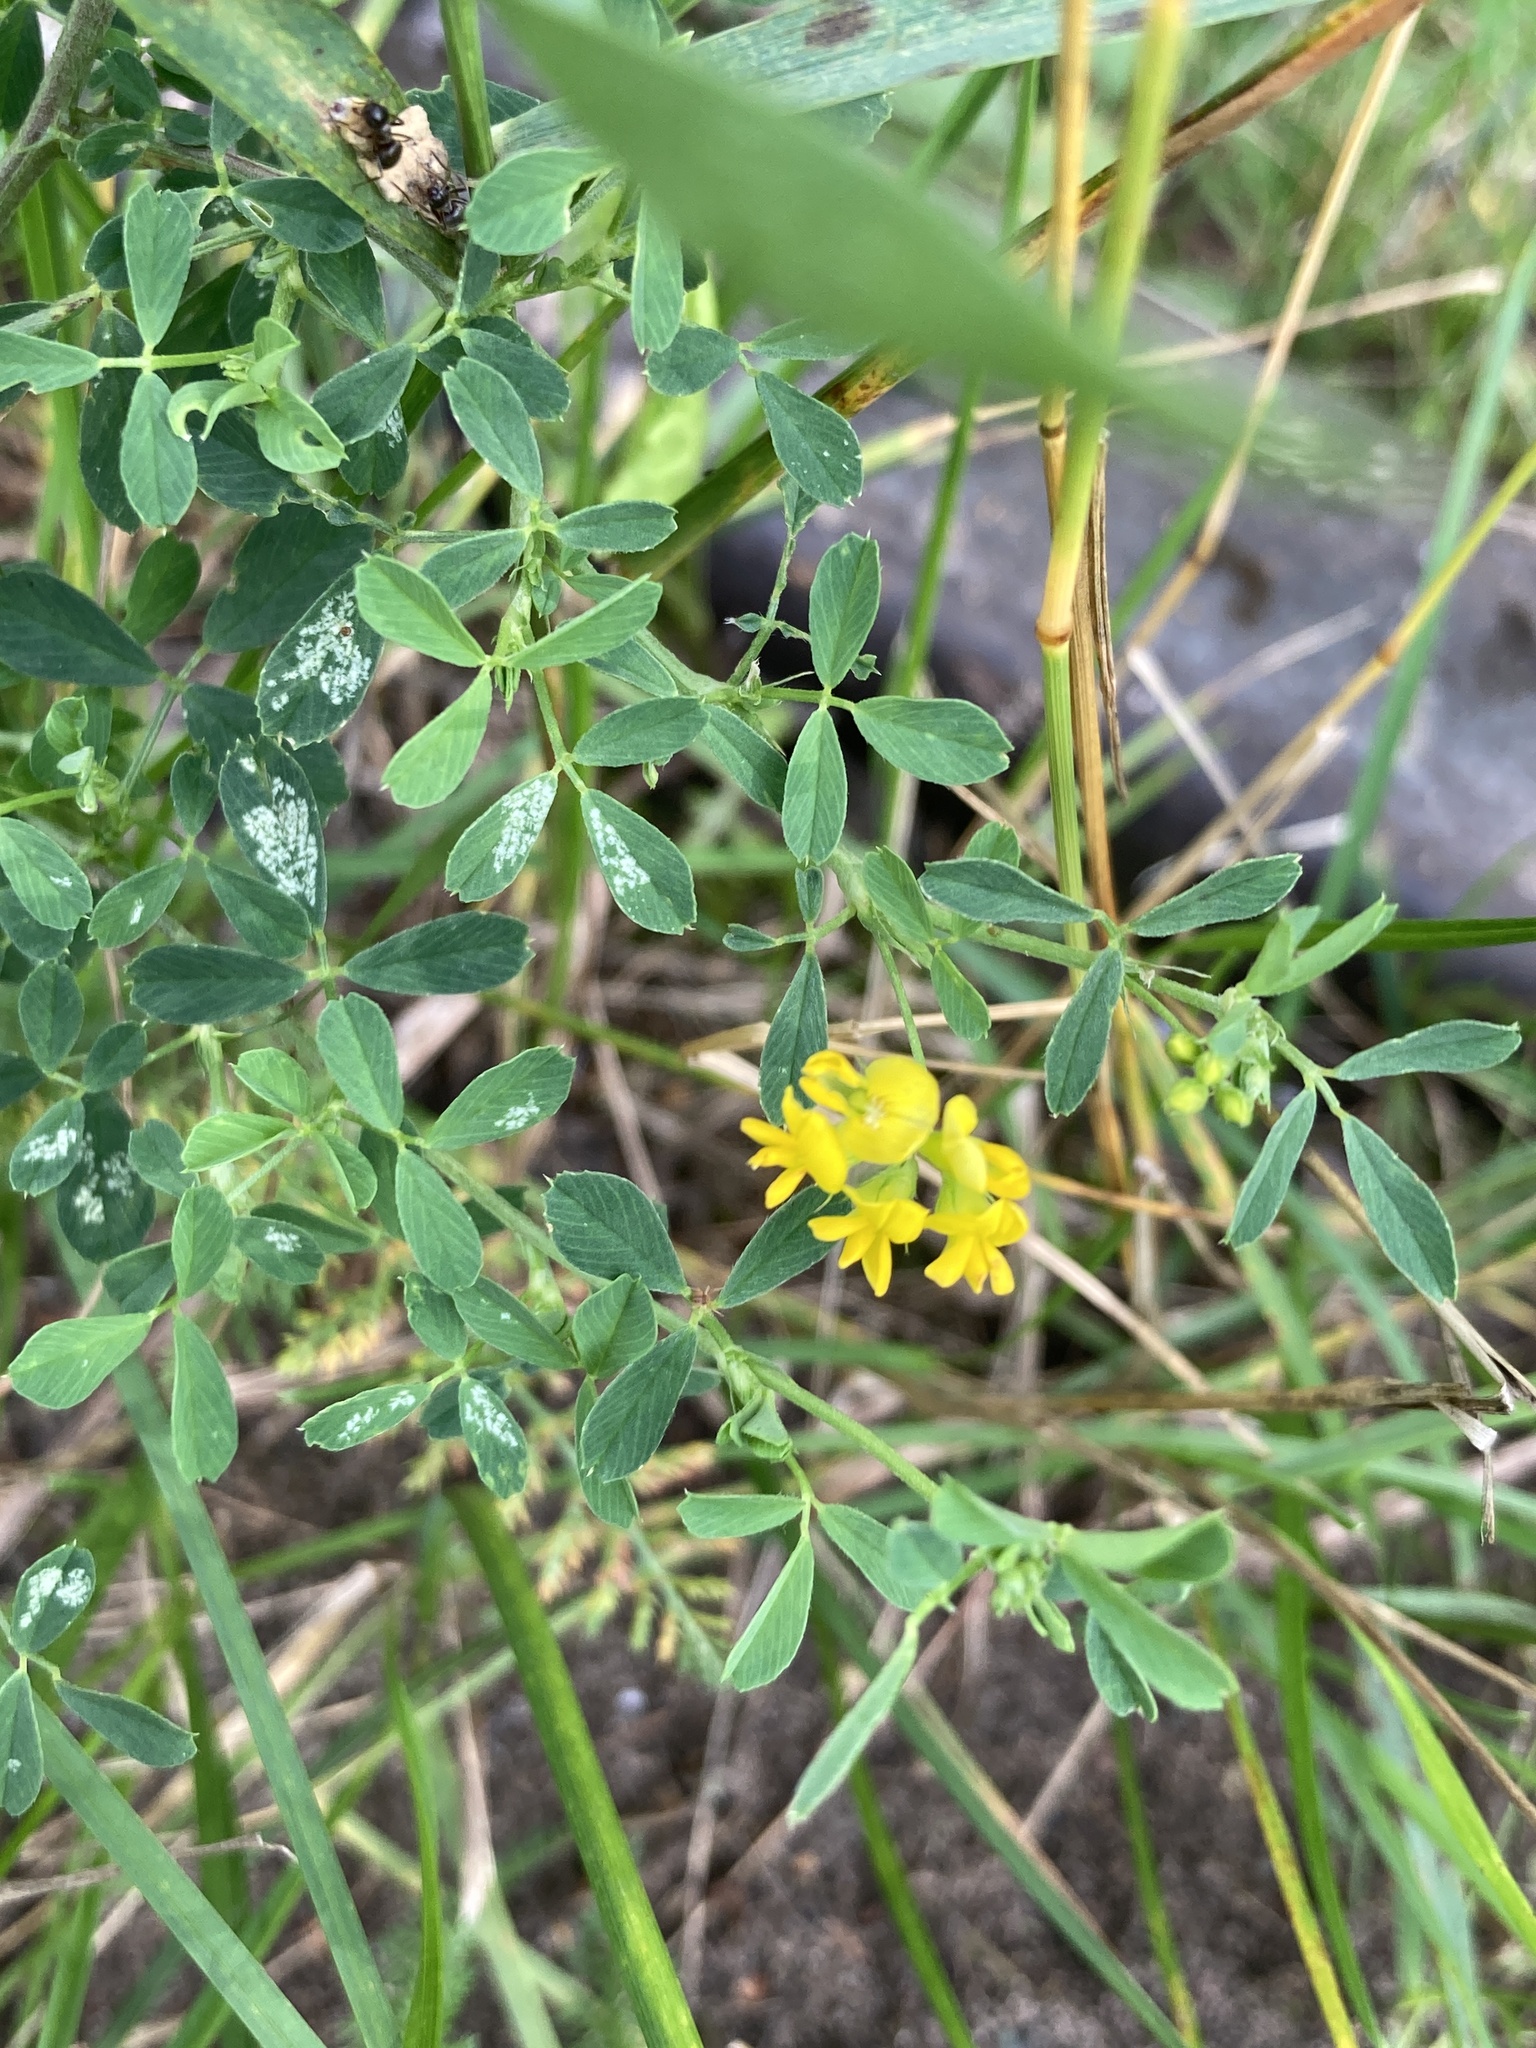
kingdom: Plantae
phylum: Tracheophyta
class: Magnoliopsida
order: Fabales
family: Fabaceae
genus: Medicago
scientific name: Medicago falcata
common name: Sickle medick
